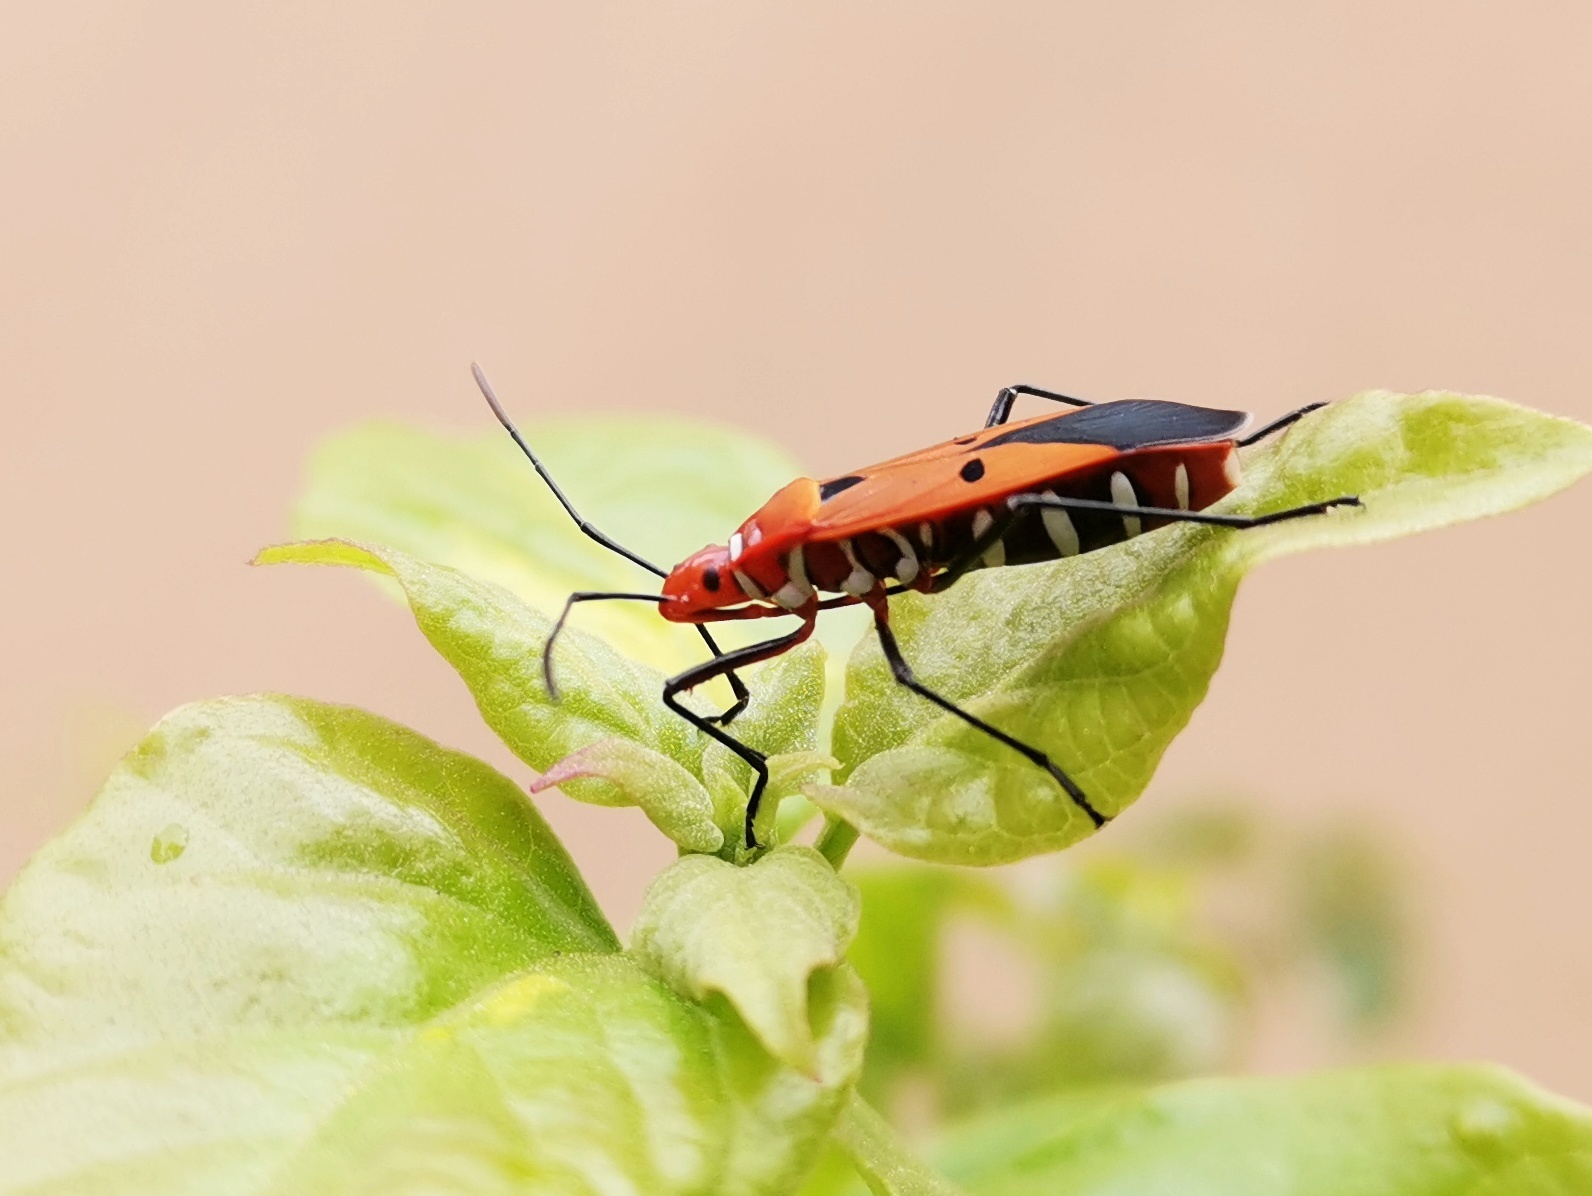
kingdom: Animalia
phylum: Arthropoda
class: Insecta
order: Hemiptera
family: Pyrrhocoridae
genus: Dysdercus
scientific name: Dysdercus cingulatus
